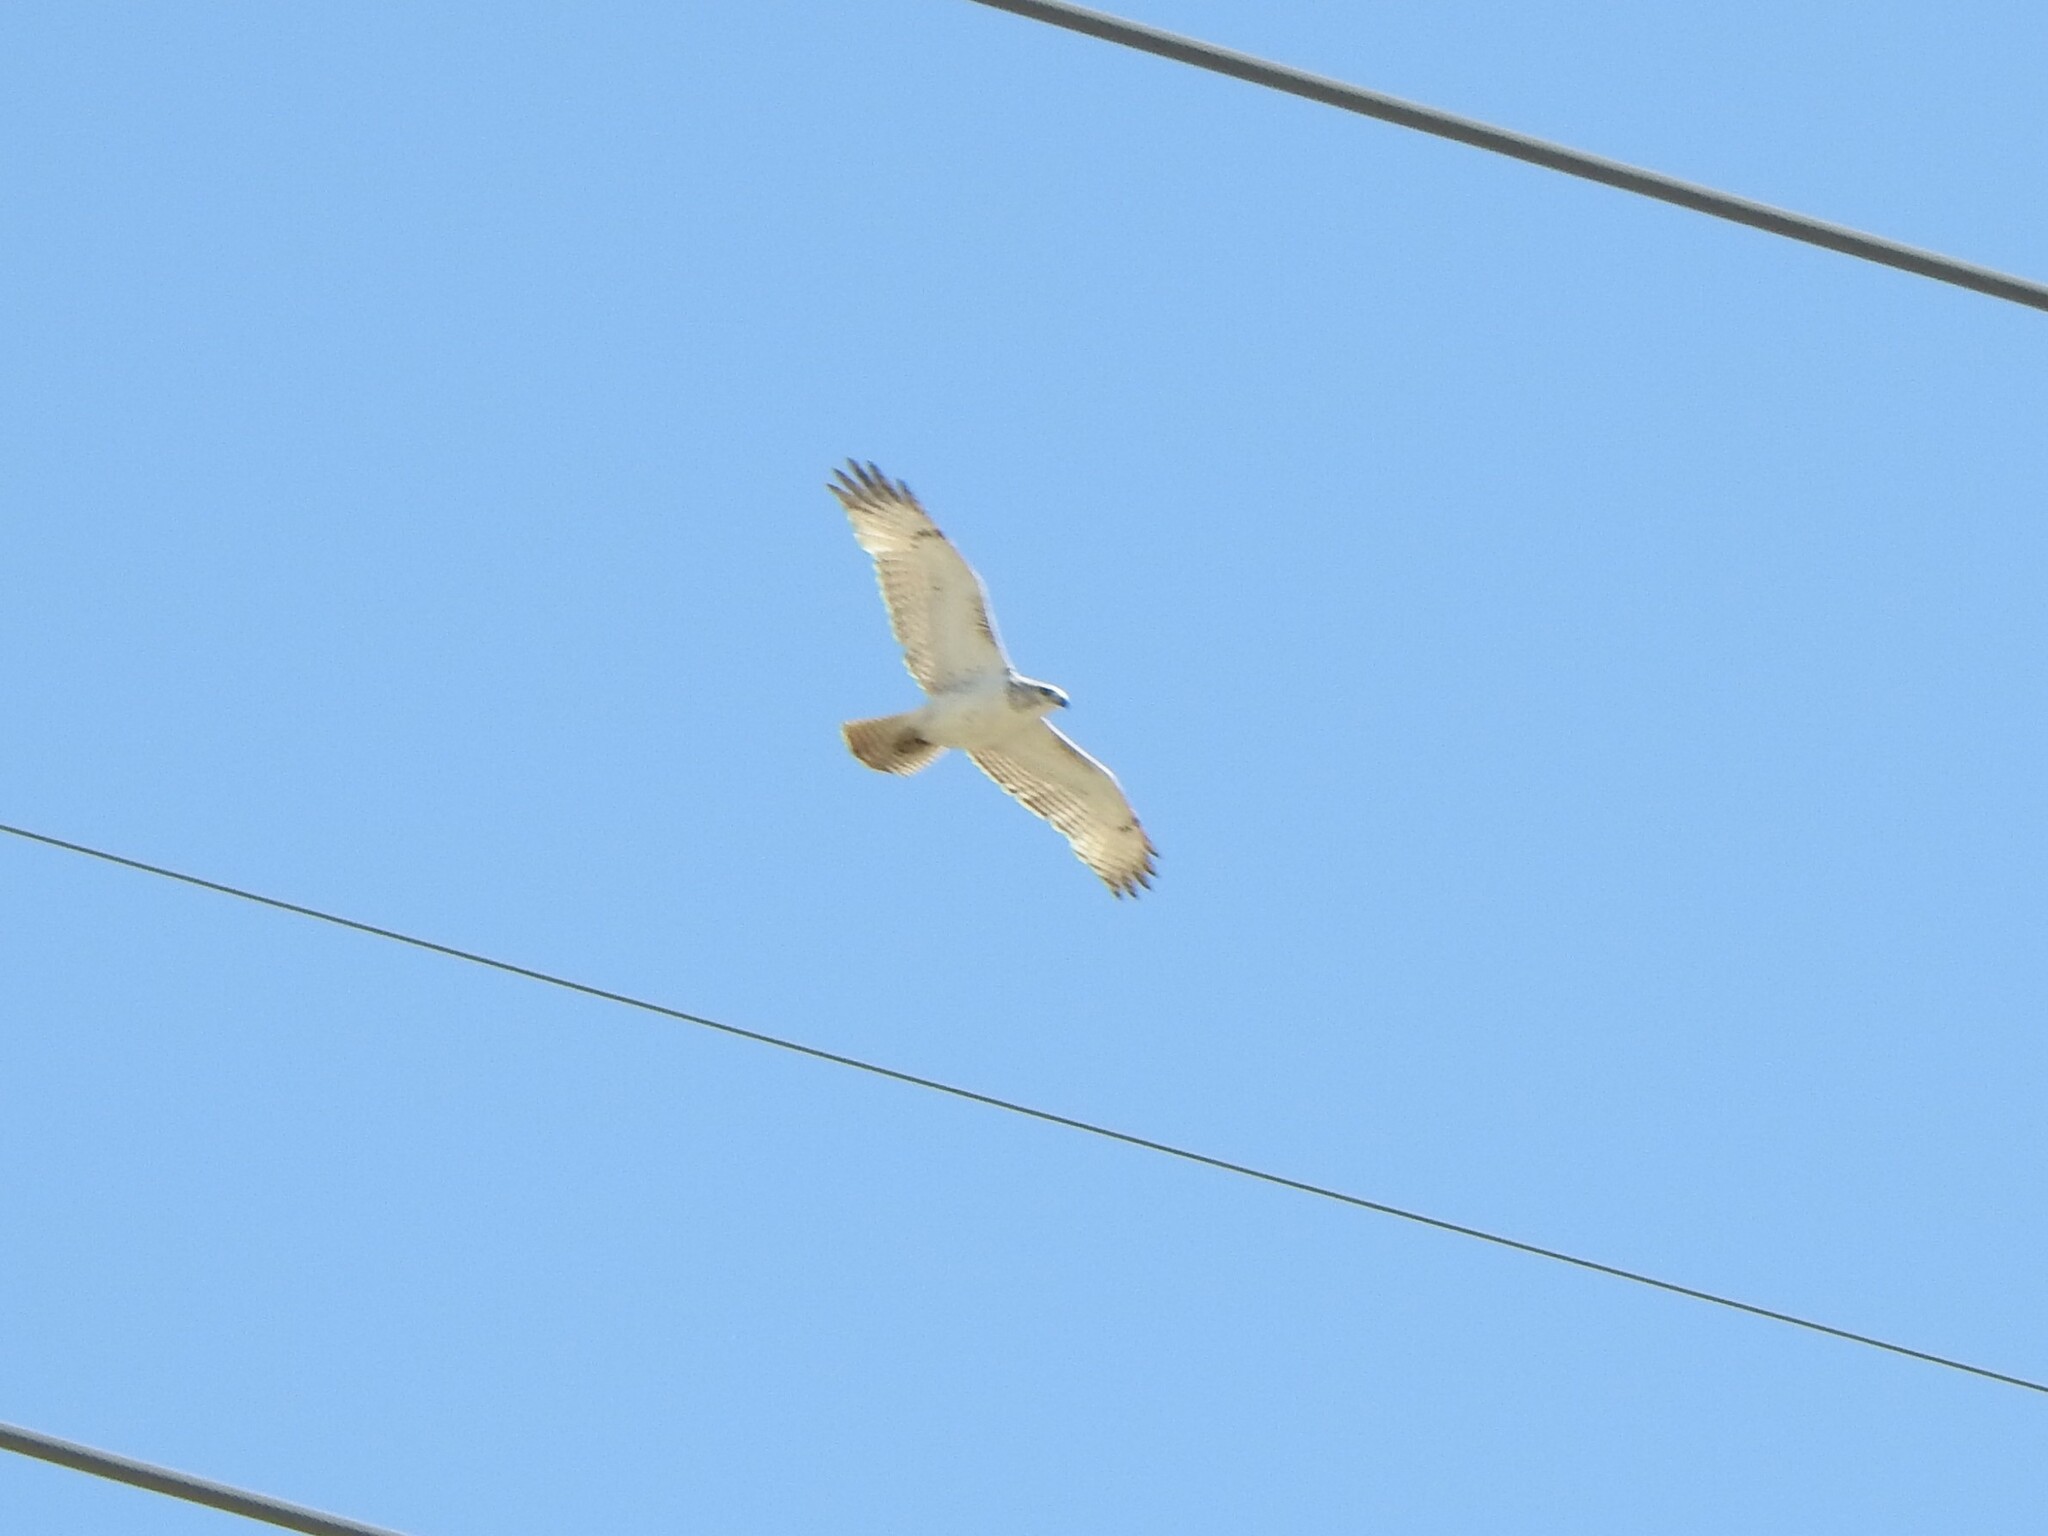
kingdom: Animalia
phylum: Chordata
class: Aves
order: Accipitriformes
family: Accipitridae
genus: Buteo
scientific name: Buteo jamaicensis
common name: Red-tailed hawk
